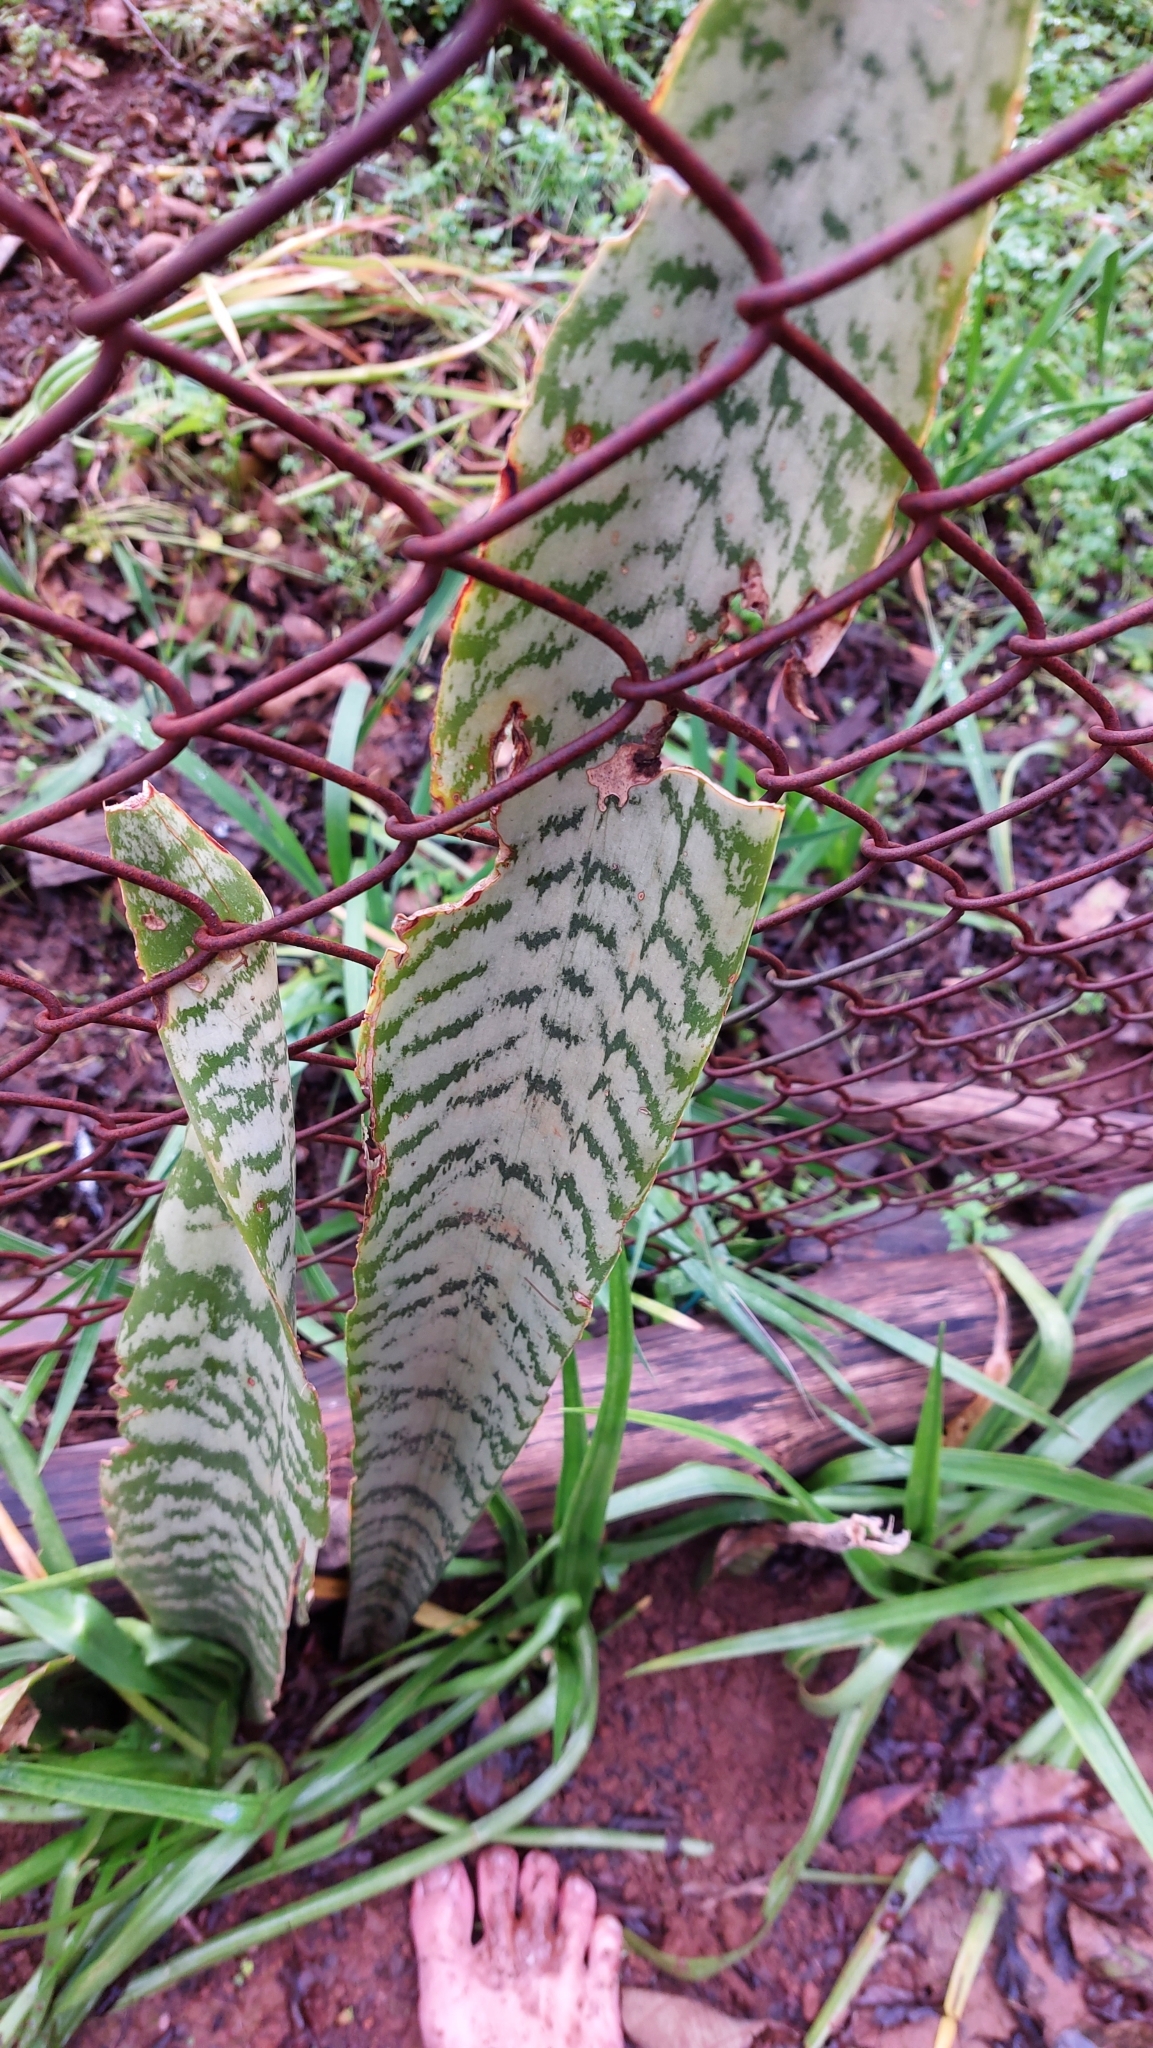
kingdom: Plantae
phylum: Tracheophyta
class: Liliopsida
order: Asparagales
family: Asparagaceae
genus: Dracaena
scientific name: Dracaena trifasciata
